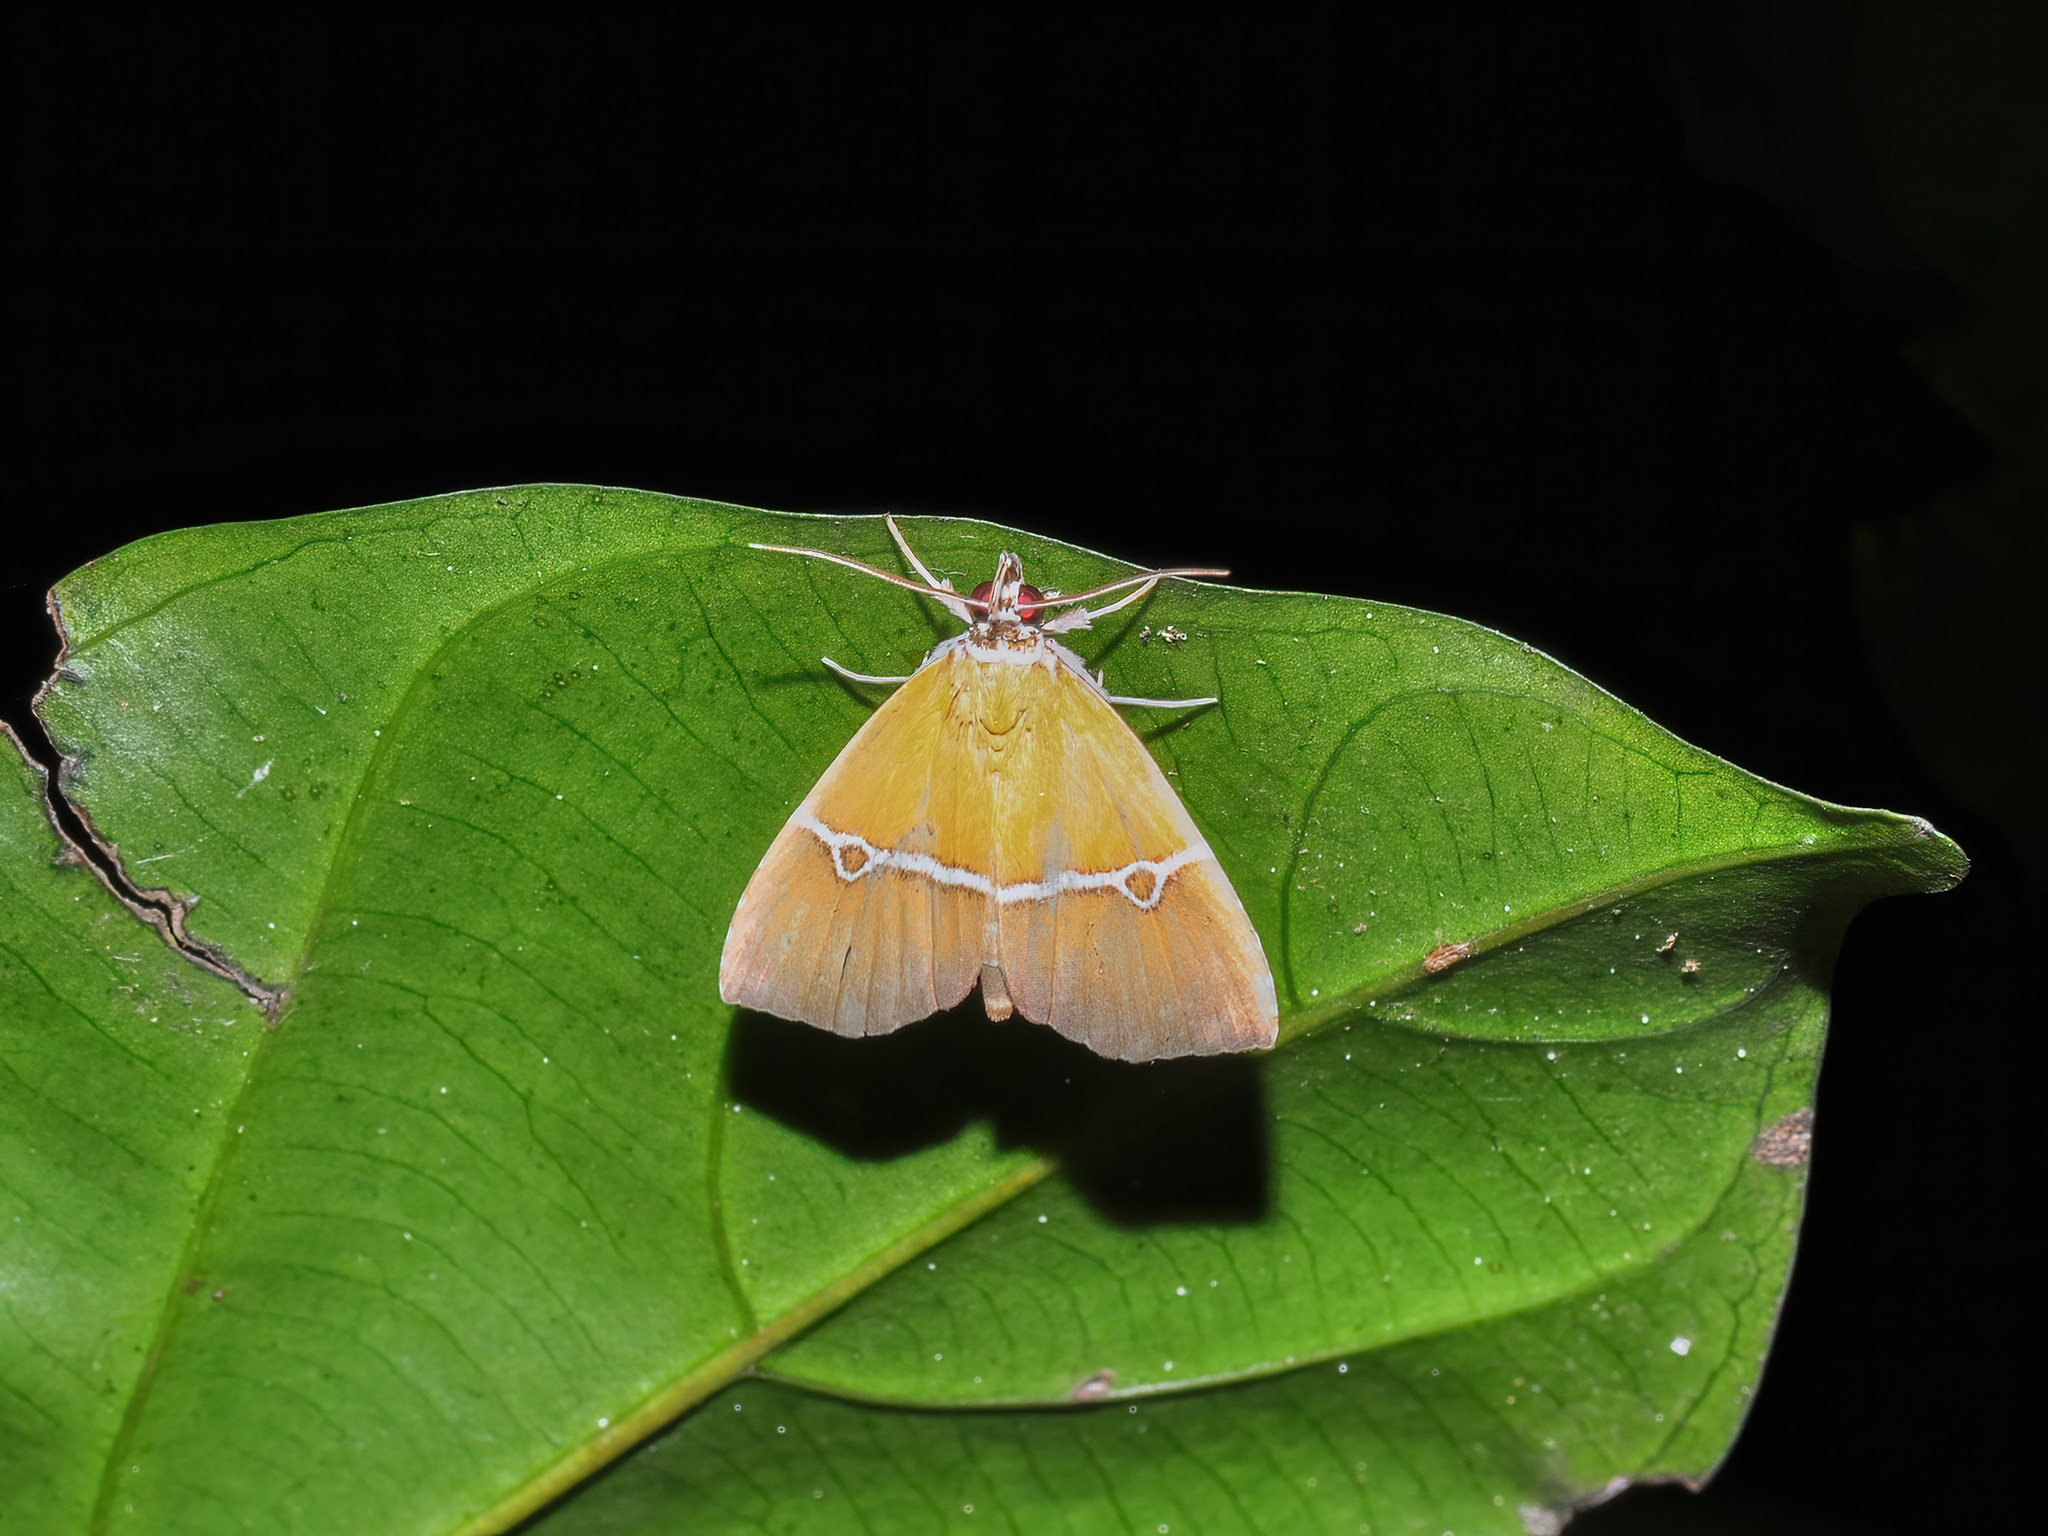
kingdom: Animalia
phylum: Arthropoda
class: Insecta
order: Lepidoptera
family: Erebidae
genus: Catada
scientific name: Catada canaliferalis
